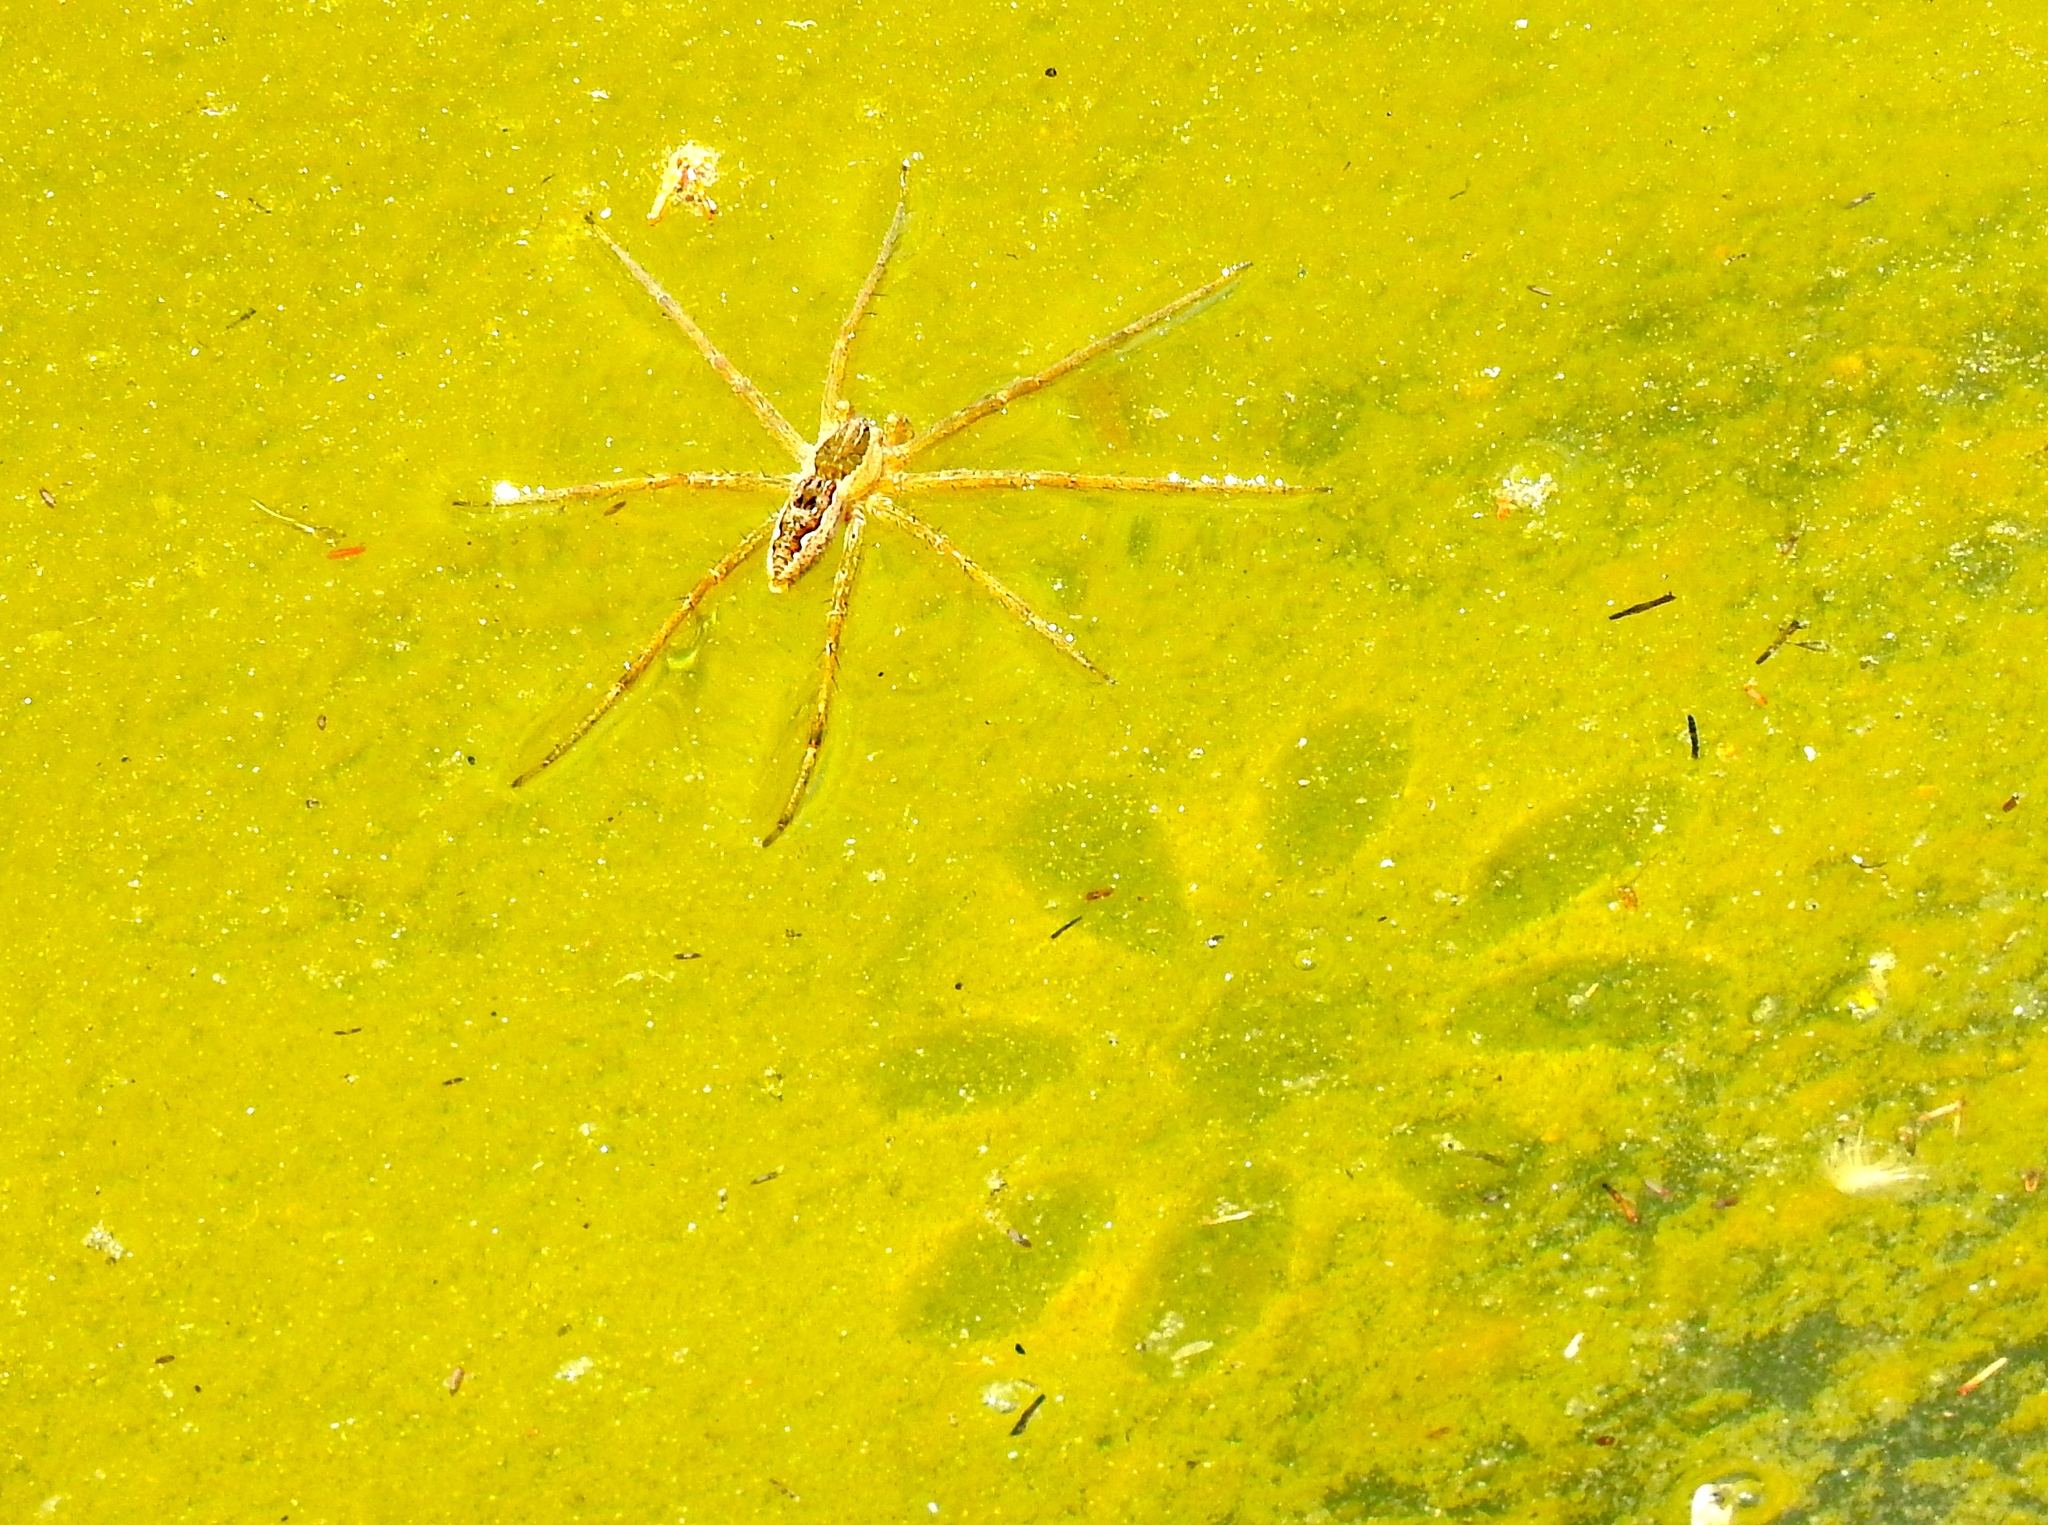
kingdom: Animalia
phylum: Arthropoda
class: Arachnida
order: Araneae
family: Pisauridae
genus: Tinus
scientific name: Tinus
